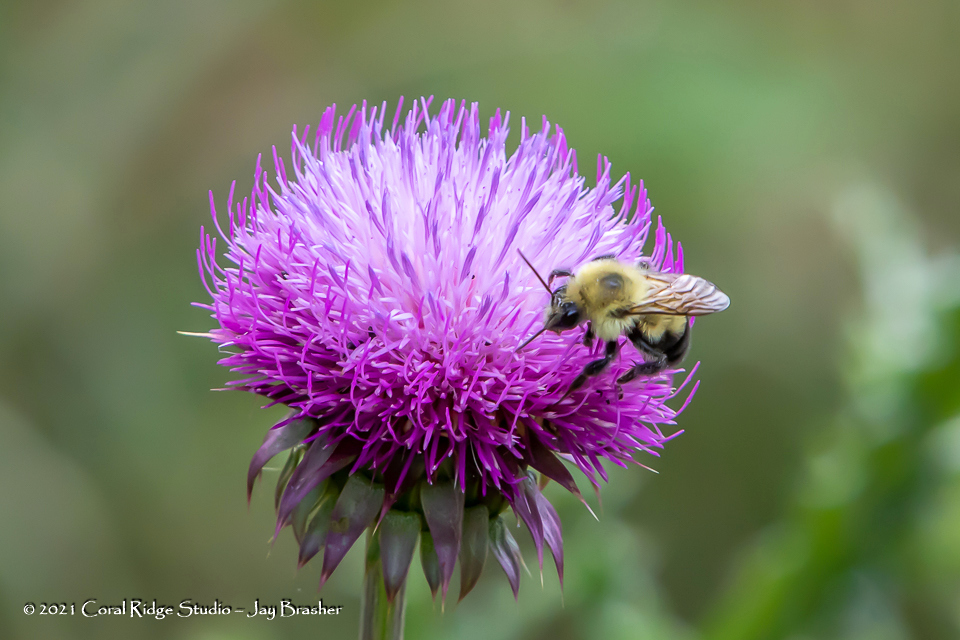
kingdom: Plantae
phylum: Tracheophyta
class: Magnoliopsida
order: Asterales
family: Asteraceae
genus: Carduus
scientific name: Carduus nutans
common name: Musk thistle
